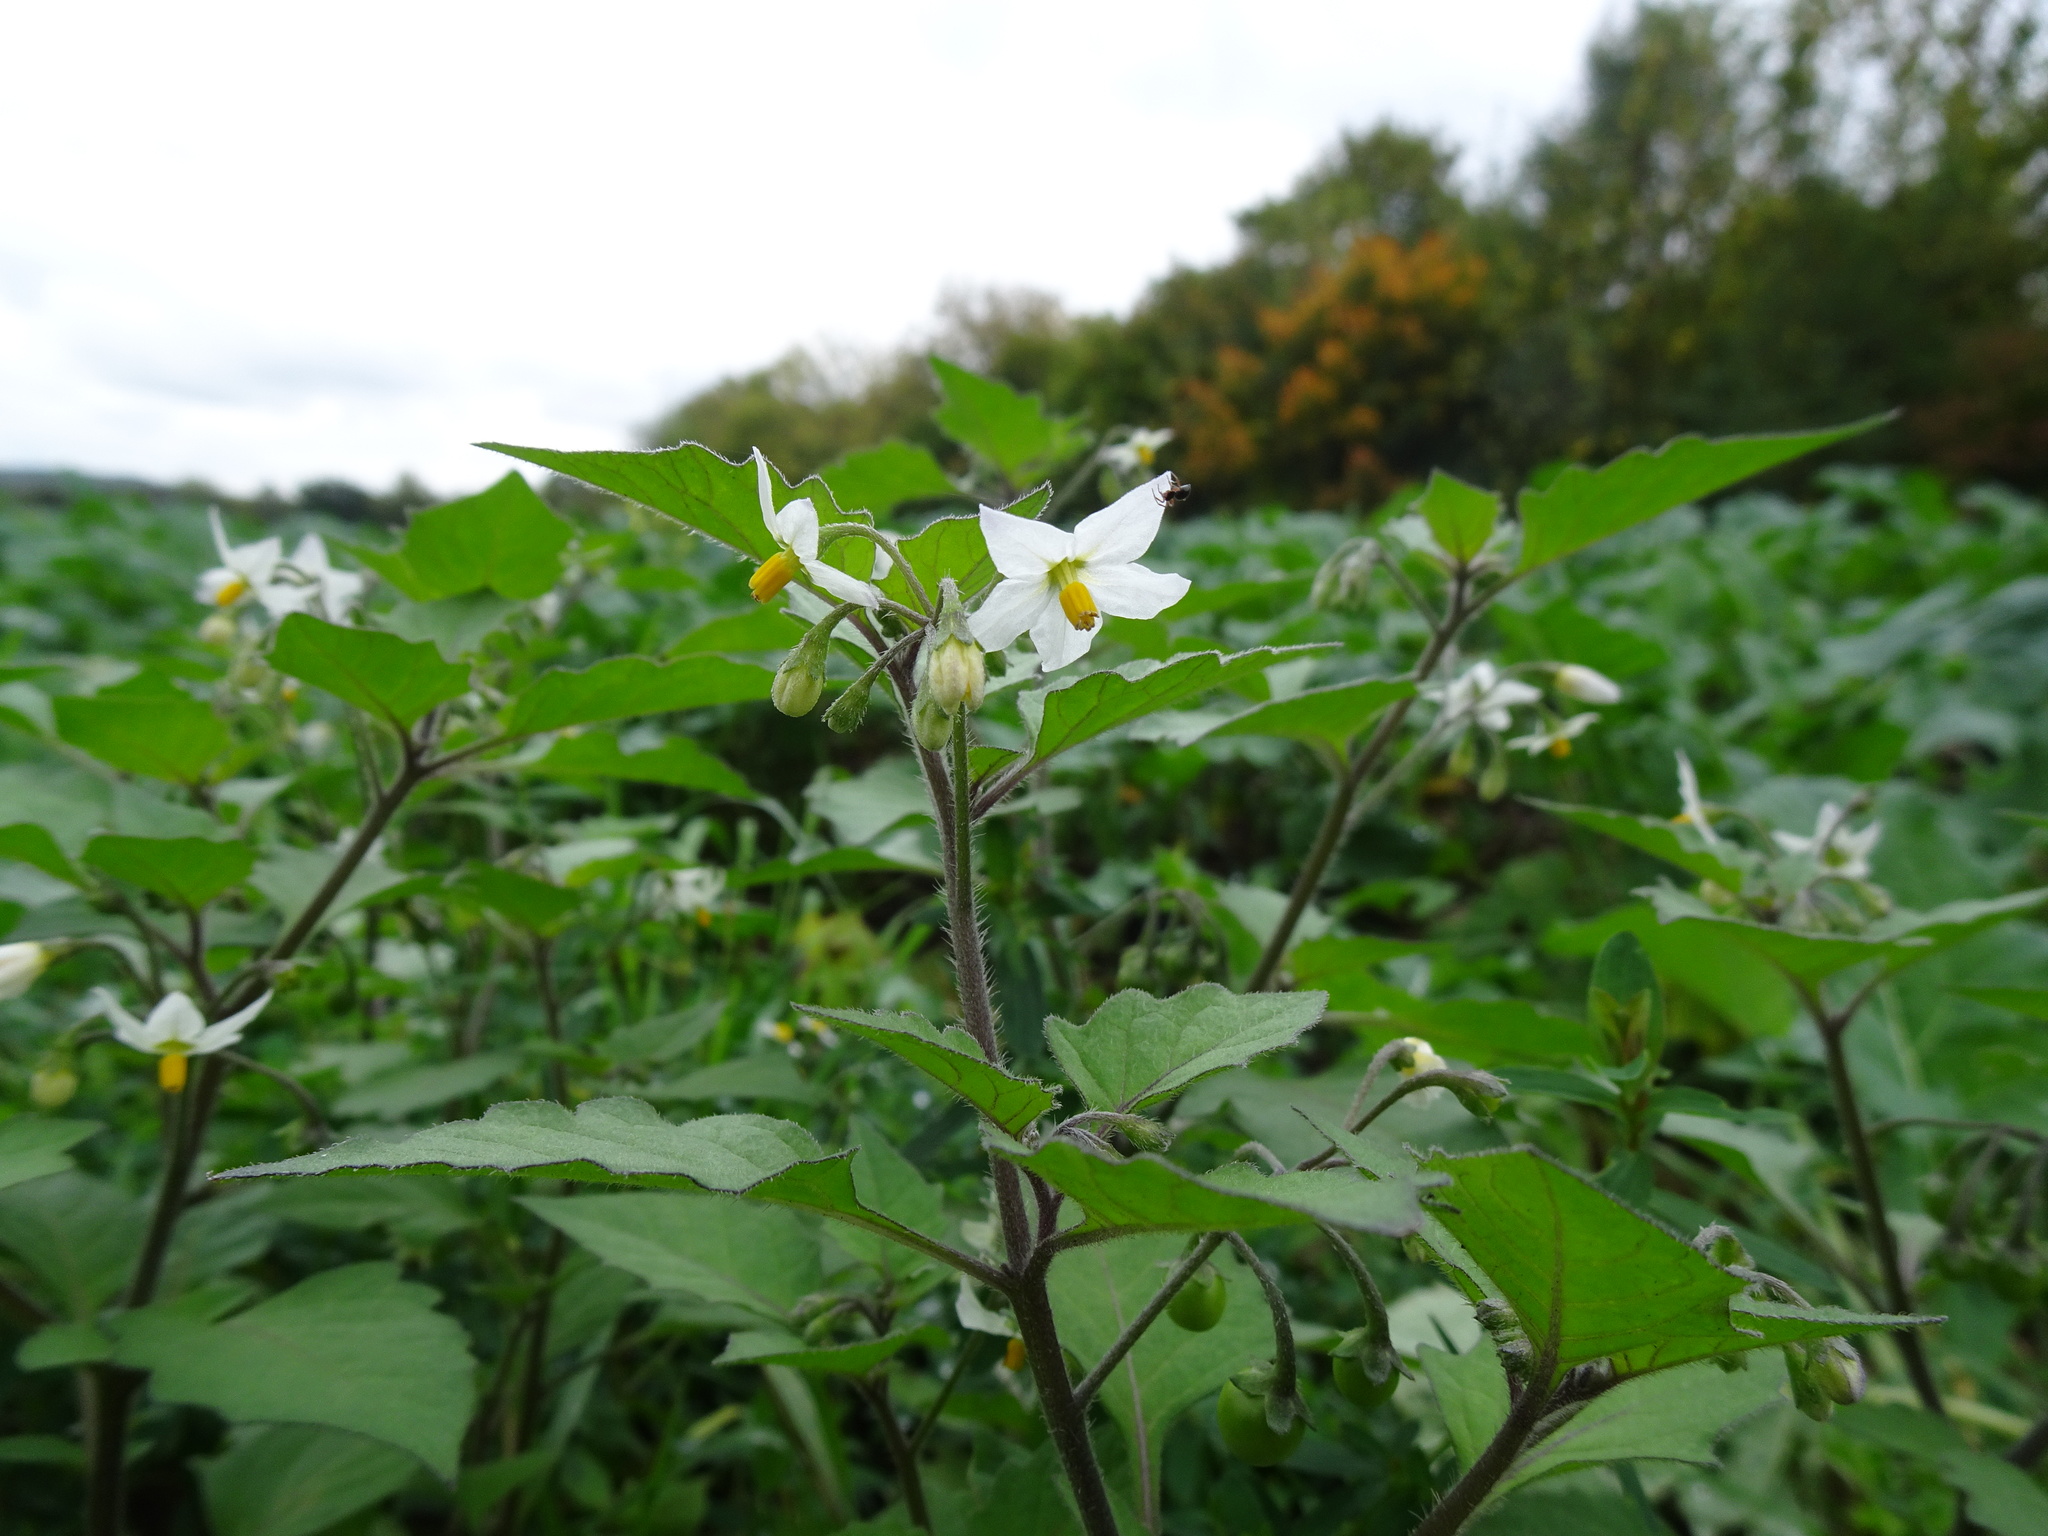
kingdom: Plantae
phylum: Tracheophyta
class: Magnoliopsida
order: Solanales
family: Solanaceae
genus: Solanum
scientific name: Solanum decipiens
